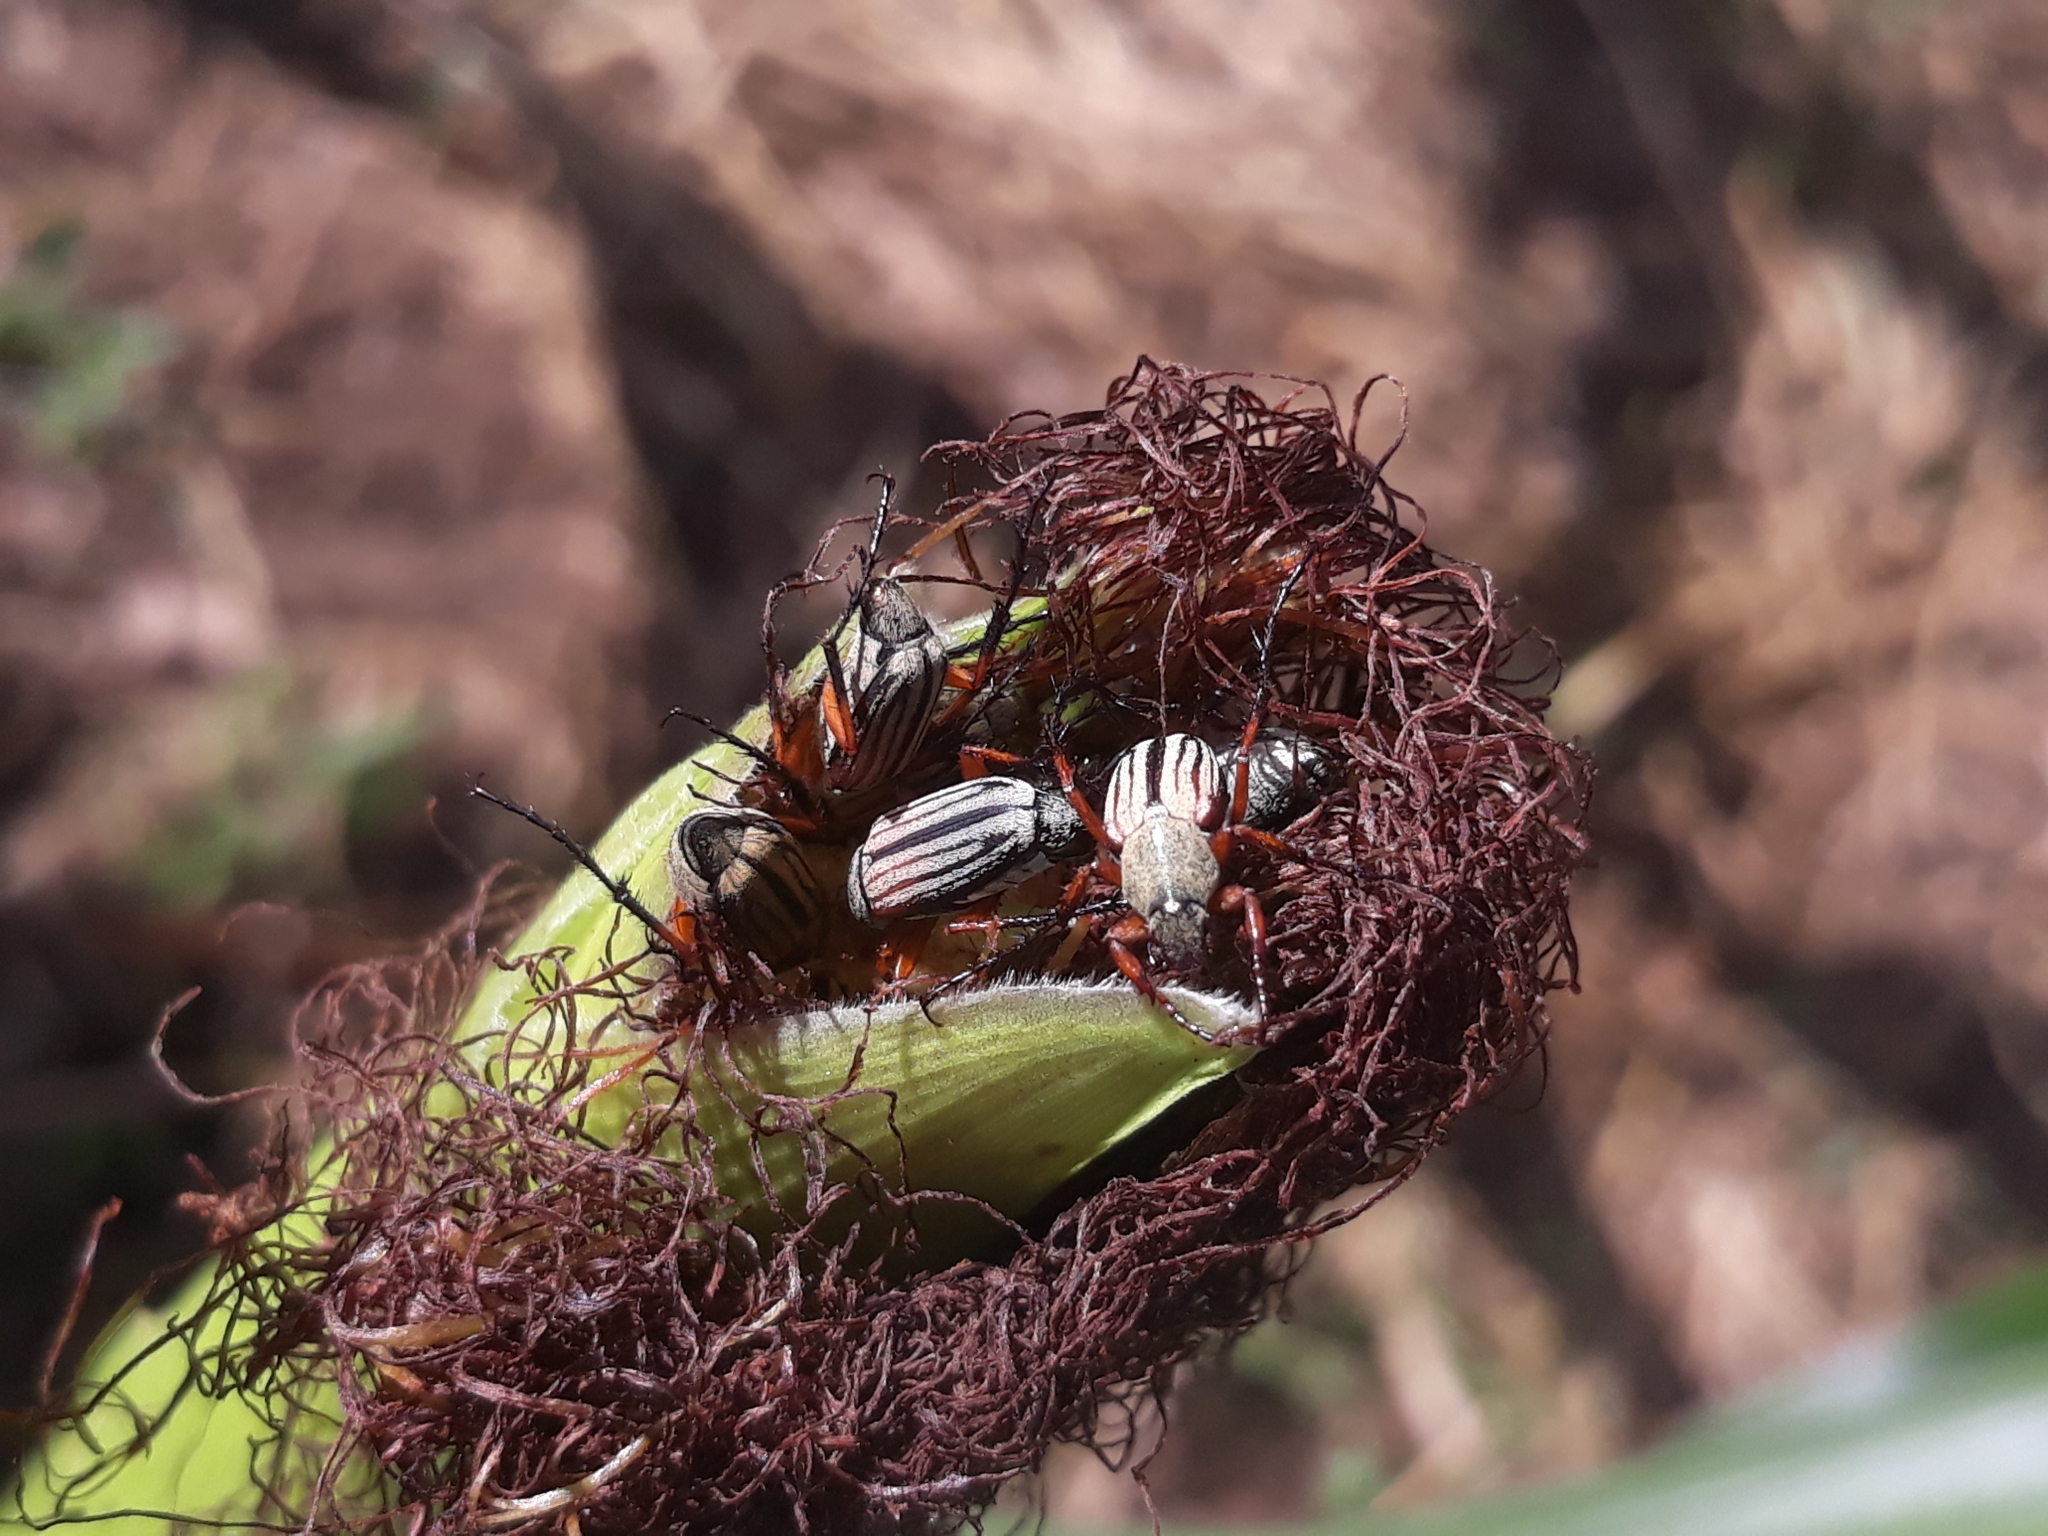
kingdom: Animalia
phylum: Arthropoda
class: Insecta
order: Coleoptera
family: Scarabaeidae
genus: Macrodactylus
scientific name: Macrodactylus lineatus
